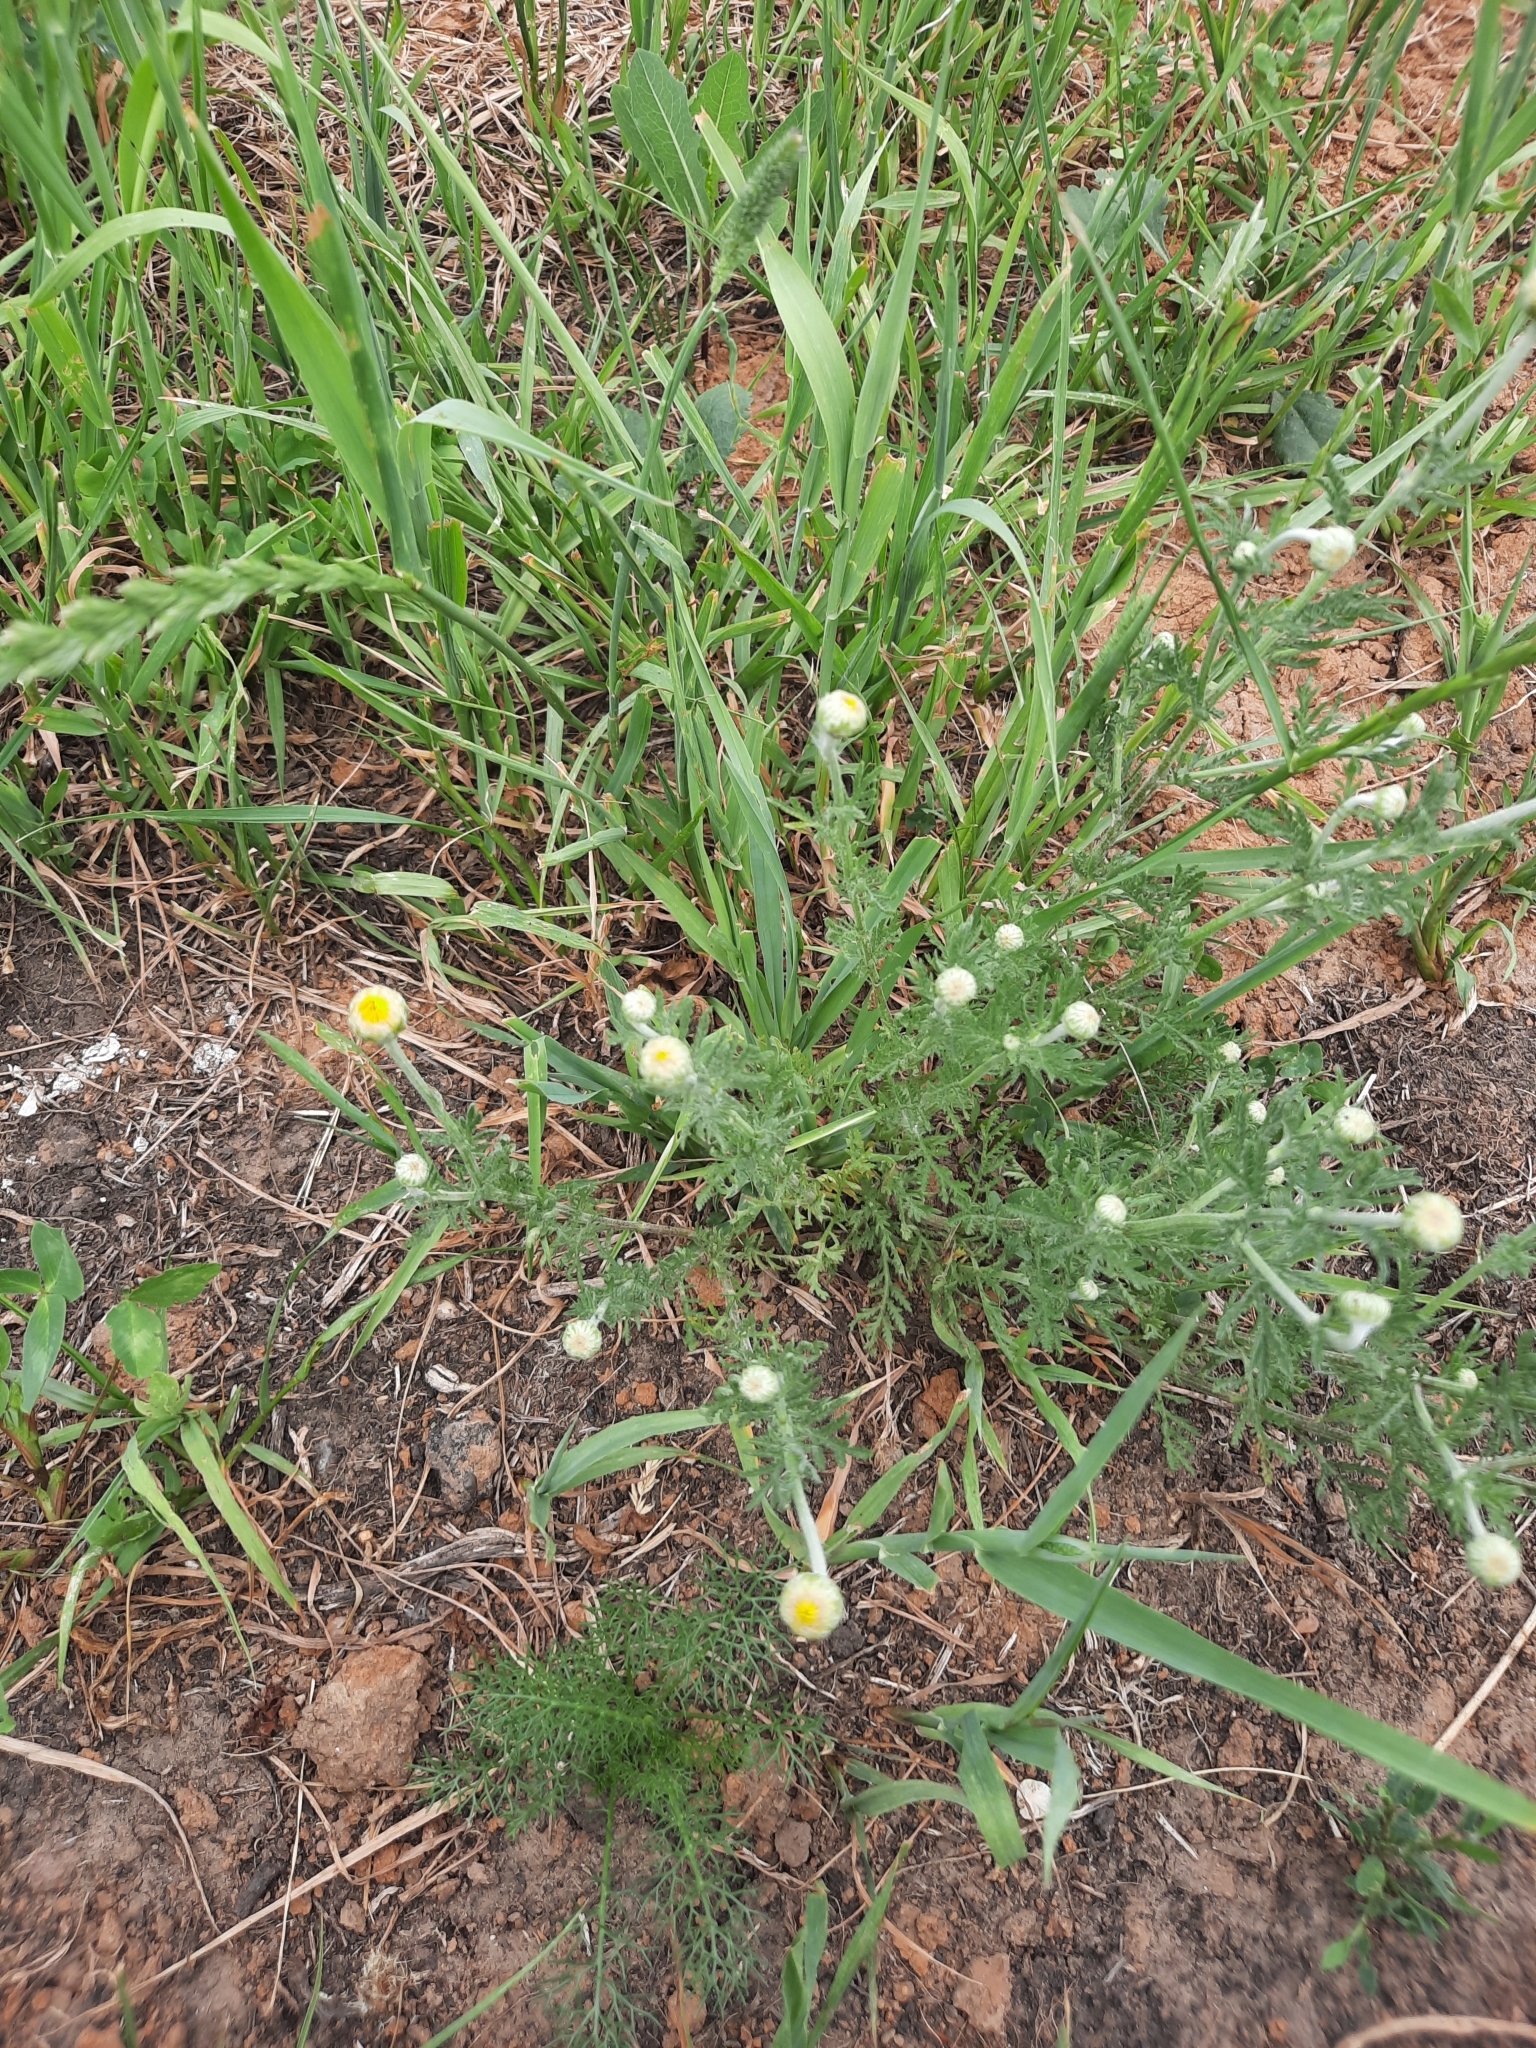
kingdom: Plantae
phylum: Tracheophyta
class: Magnoliopsida
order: Asterales
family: Asteraceae
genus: Cota
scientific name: Cota tinctoria
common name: Golden chamomile
